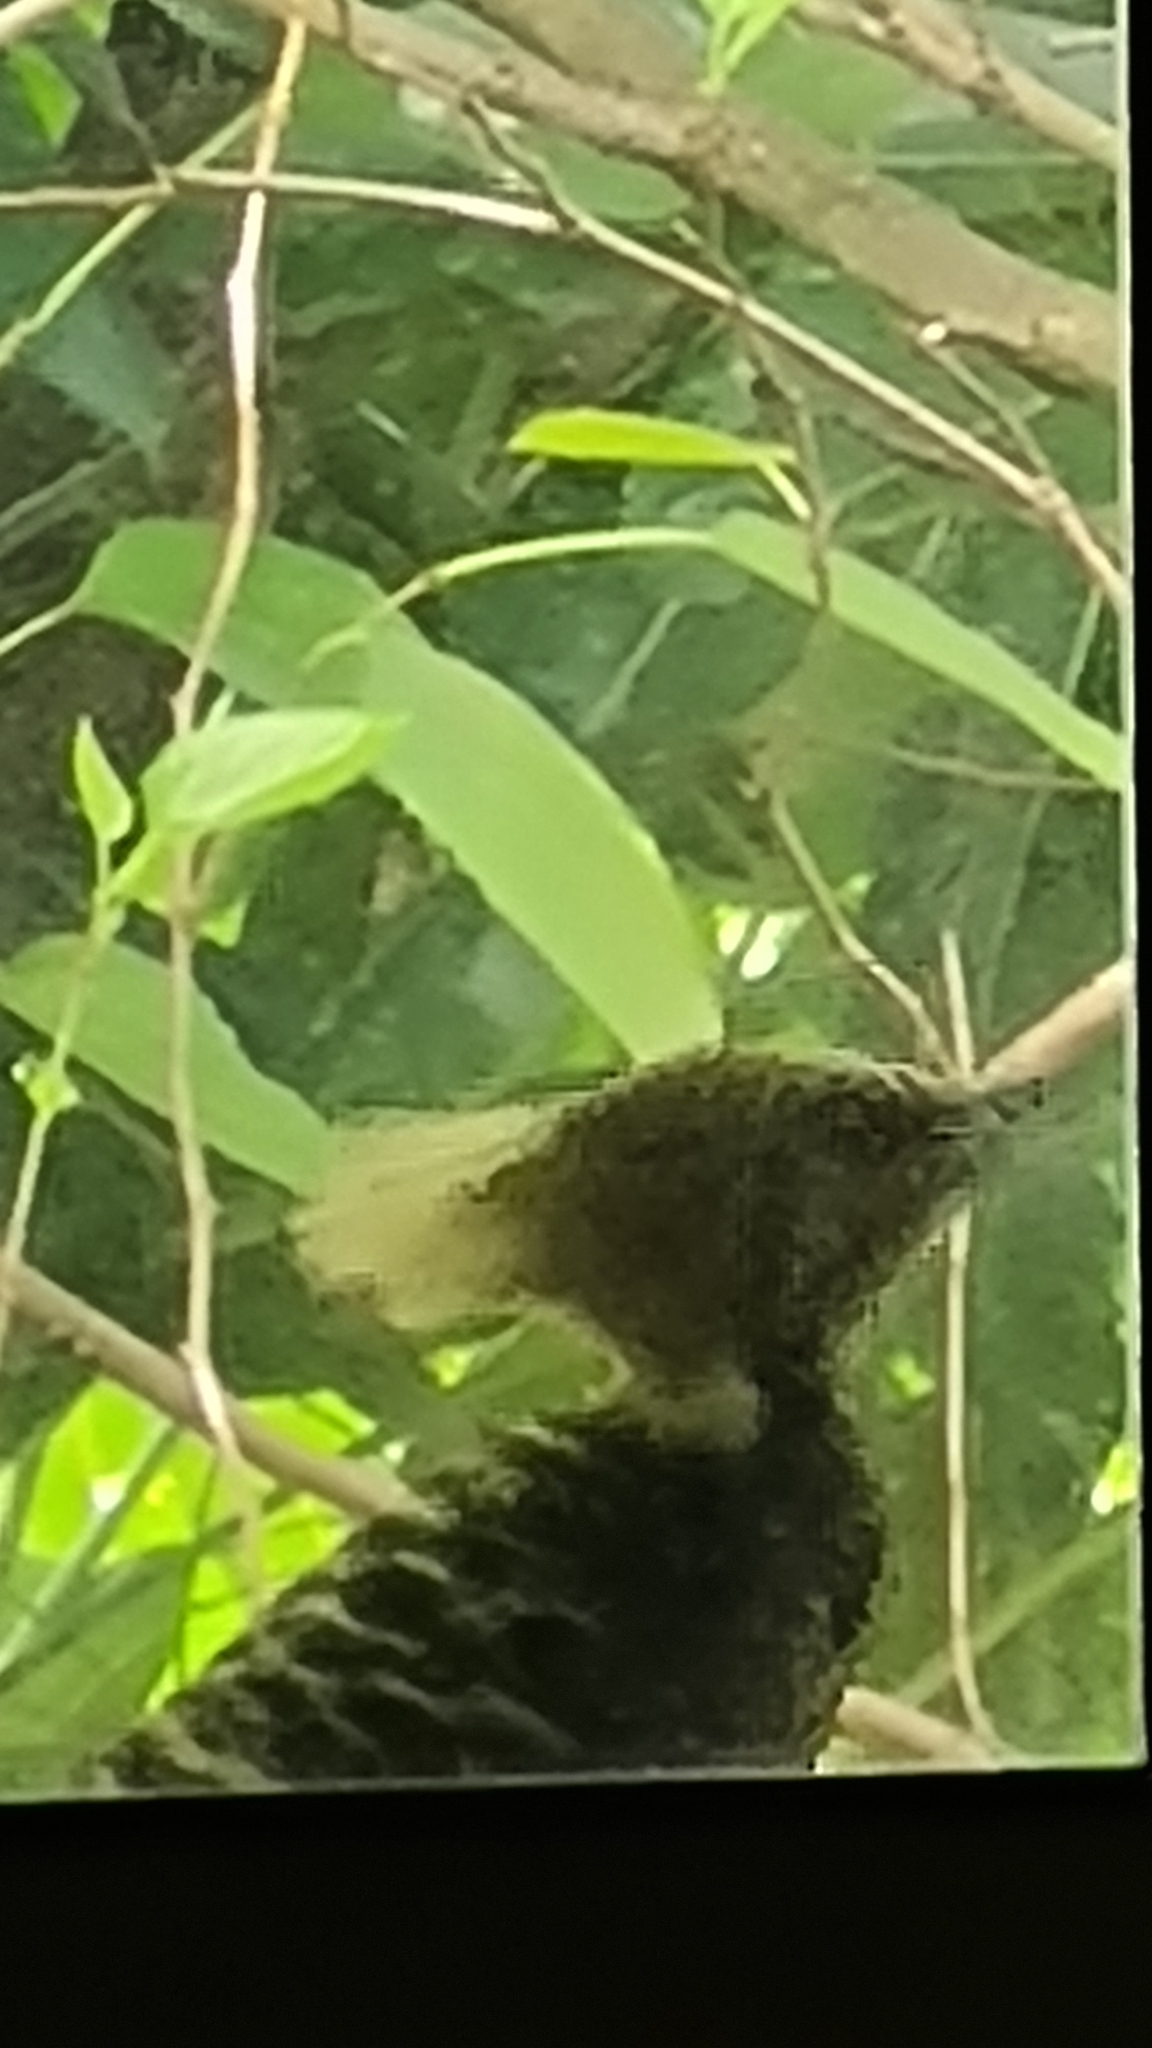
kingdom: Animalia
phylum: Chordata
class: Aves
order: Piciformes
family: Picidae
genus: Celeus
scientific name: Celeus flavescens
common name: Blond-crested woodpecker
